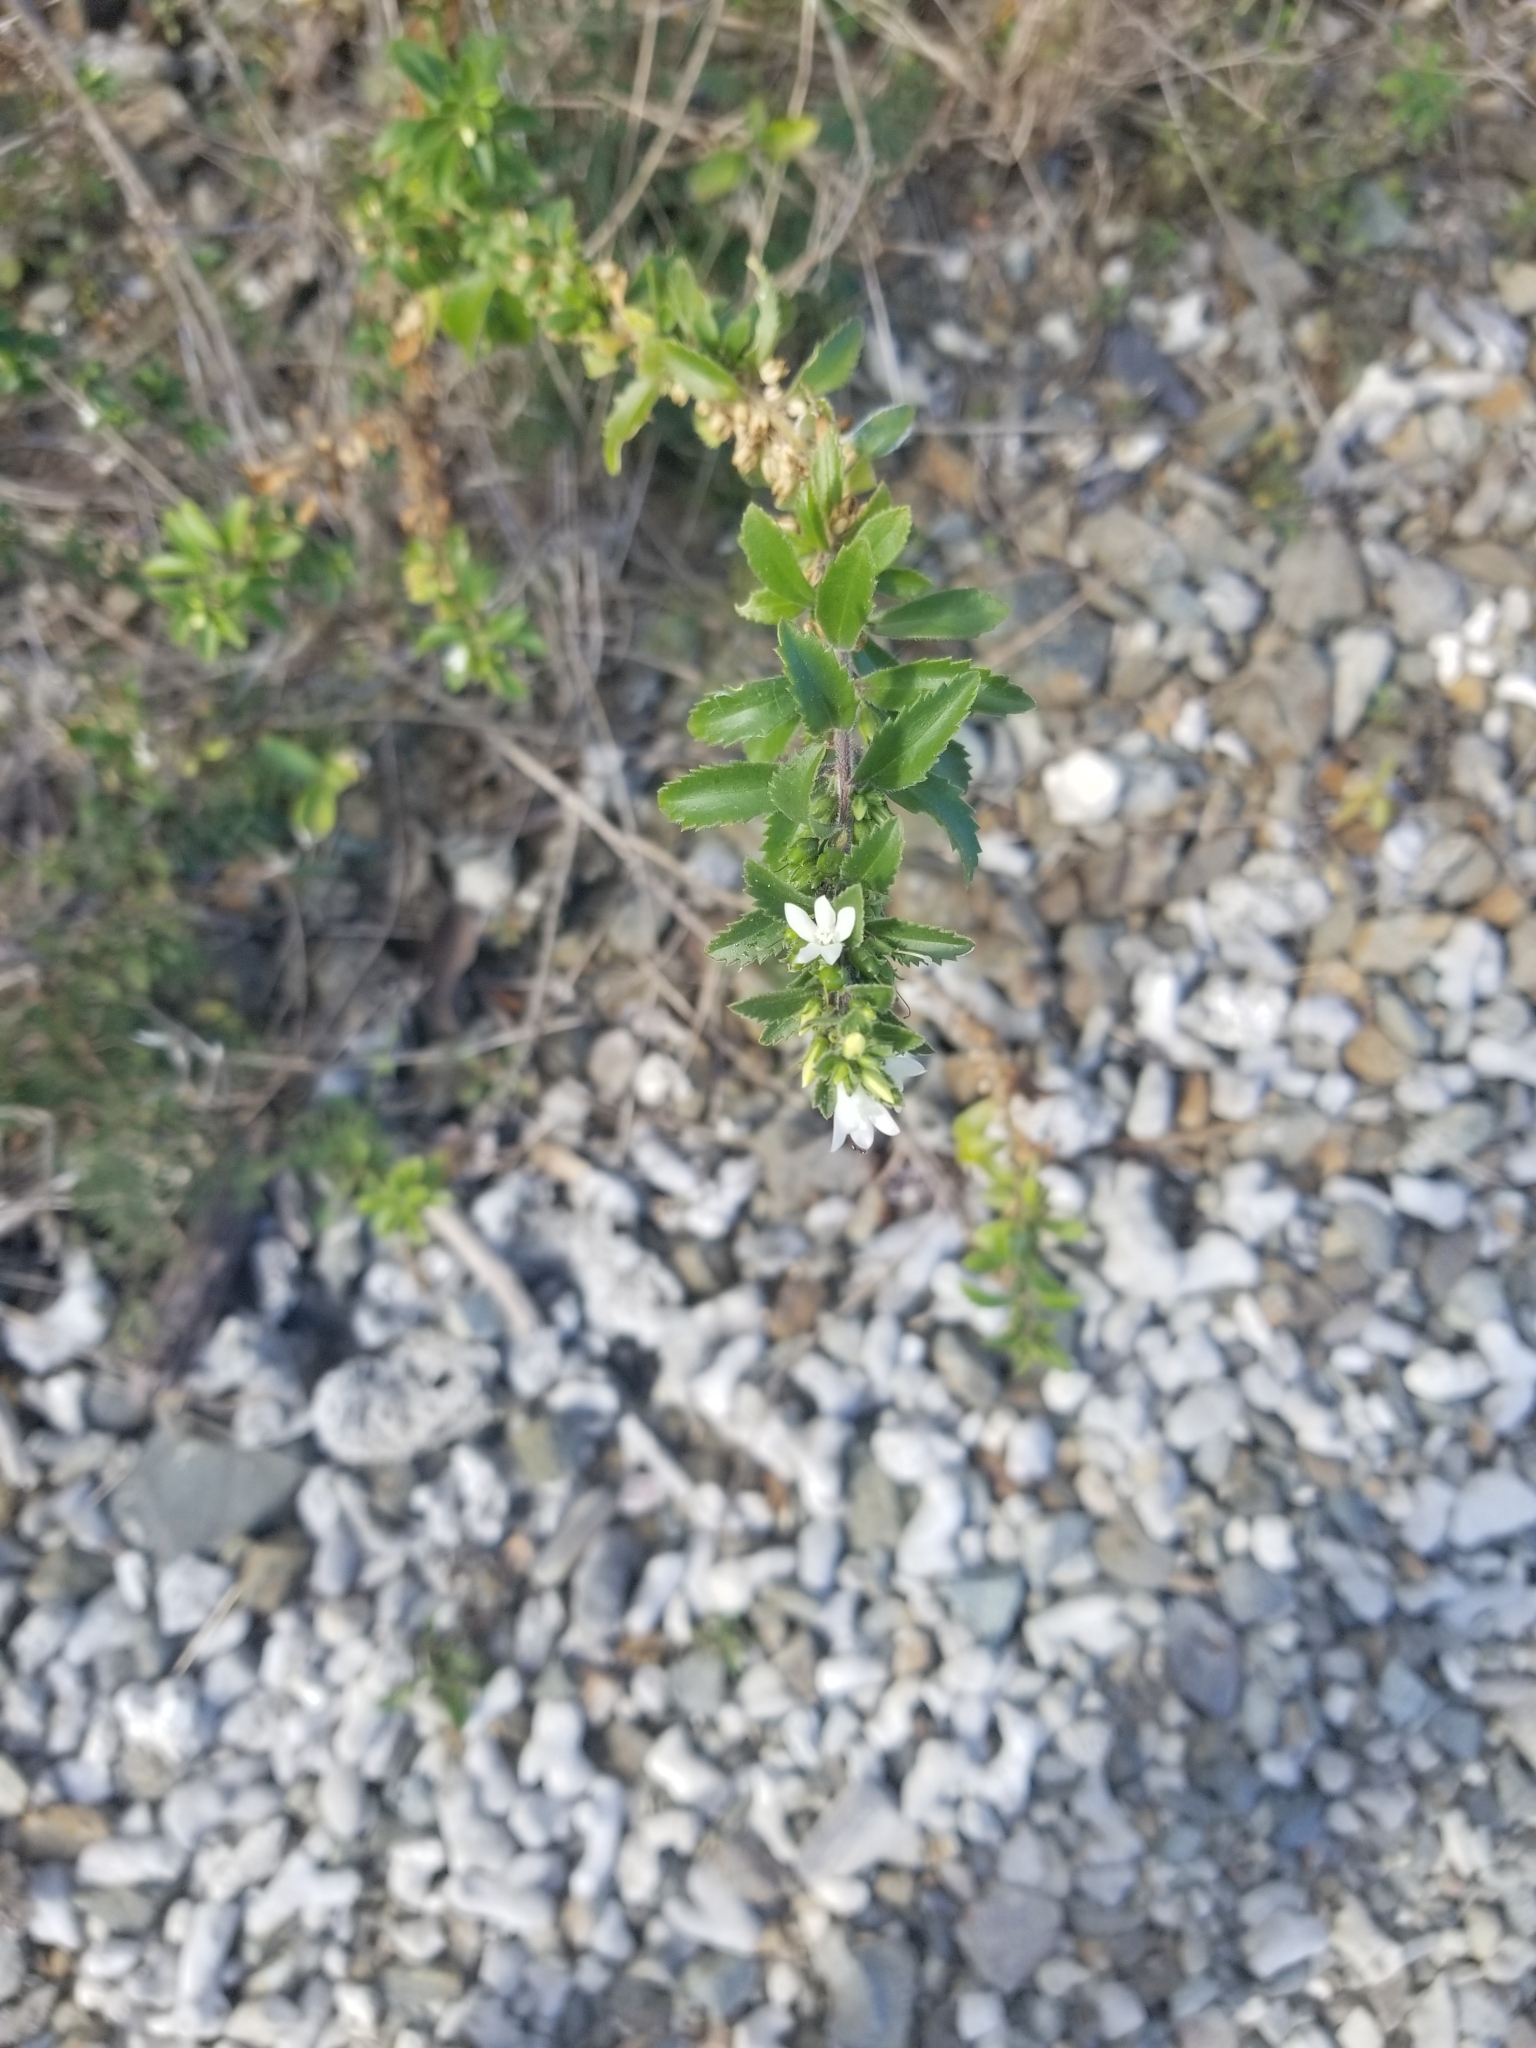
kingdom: Plantae
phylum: Tracheophyta
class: Magnoliopsida
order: Lamiales
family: Scrophulariaceae
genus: Capraria
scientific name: Capraria biflora
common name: Goatweed
